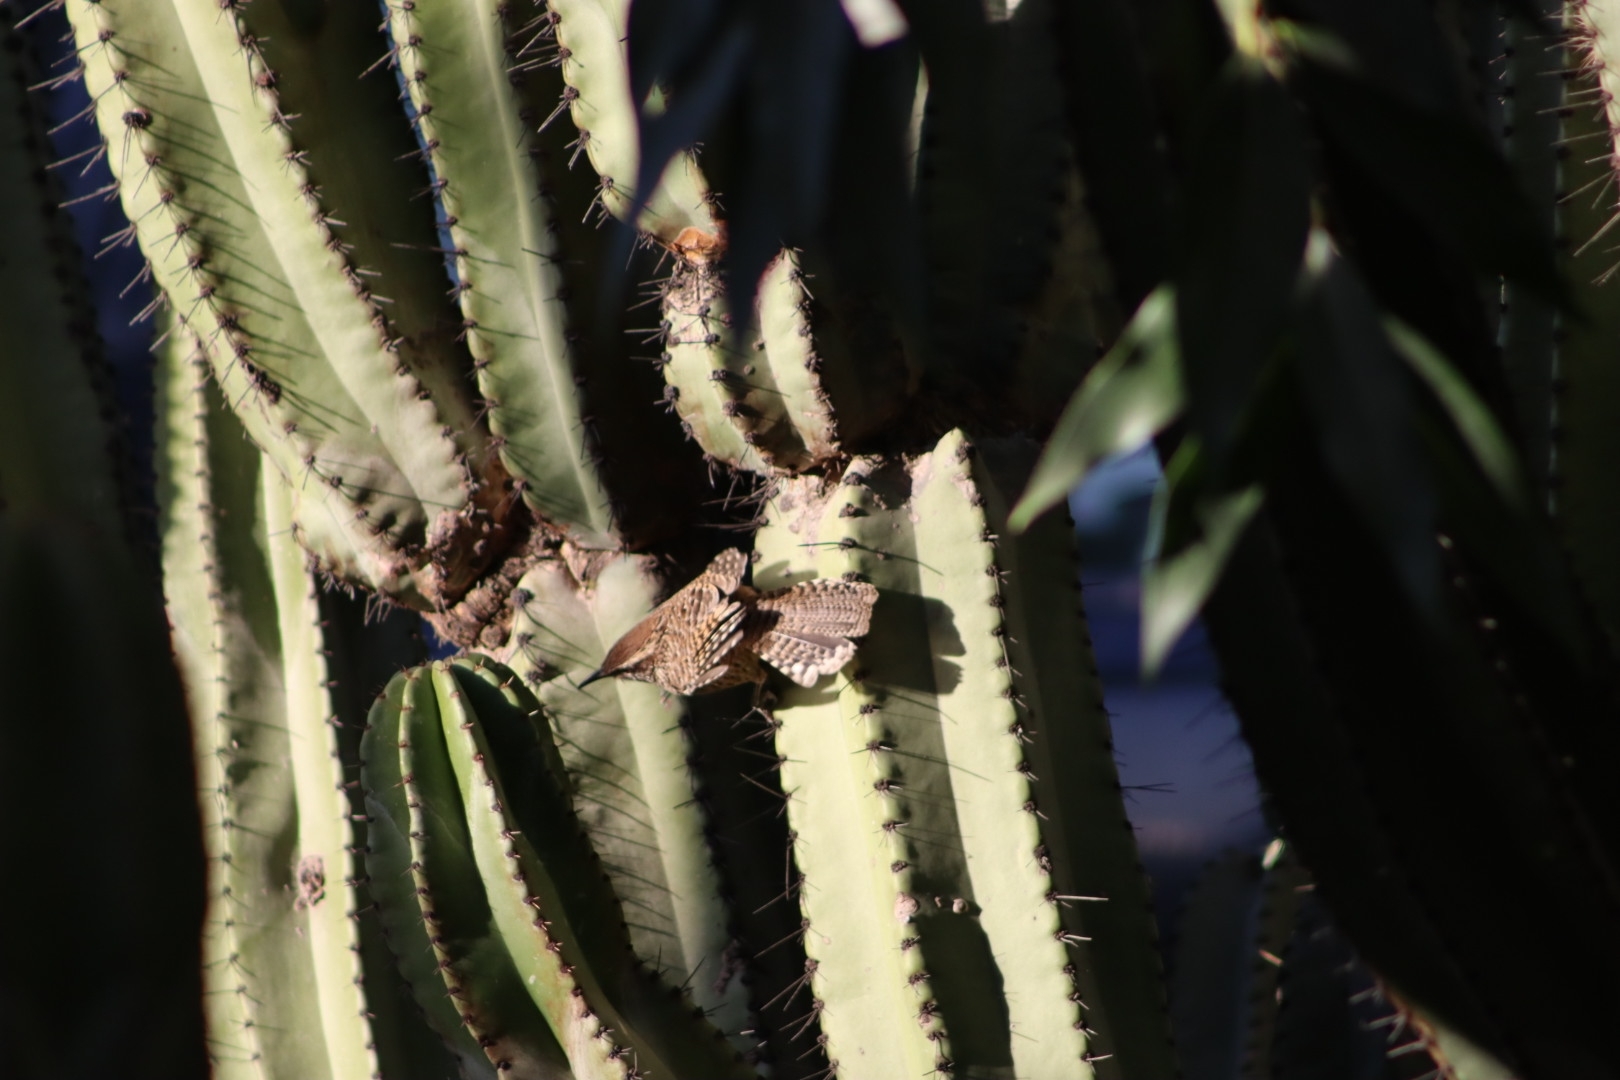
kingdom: Animalia
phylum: Chordata
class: Aves
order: Passeriformes
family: Troglodytidae
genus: Campylorhynchus
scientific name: Campylorhynchus gularis
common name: Spotted wren
